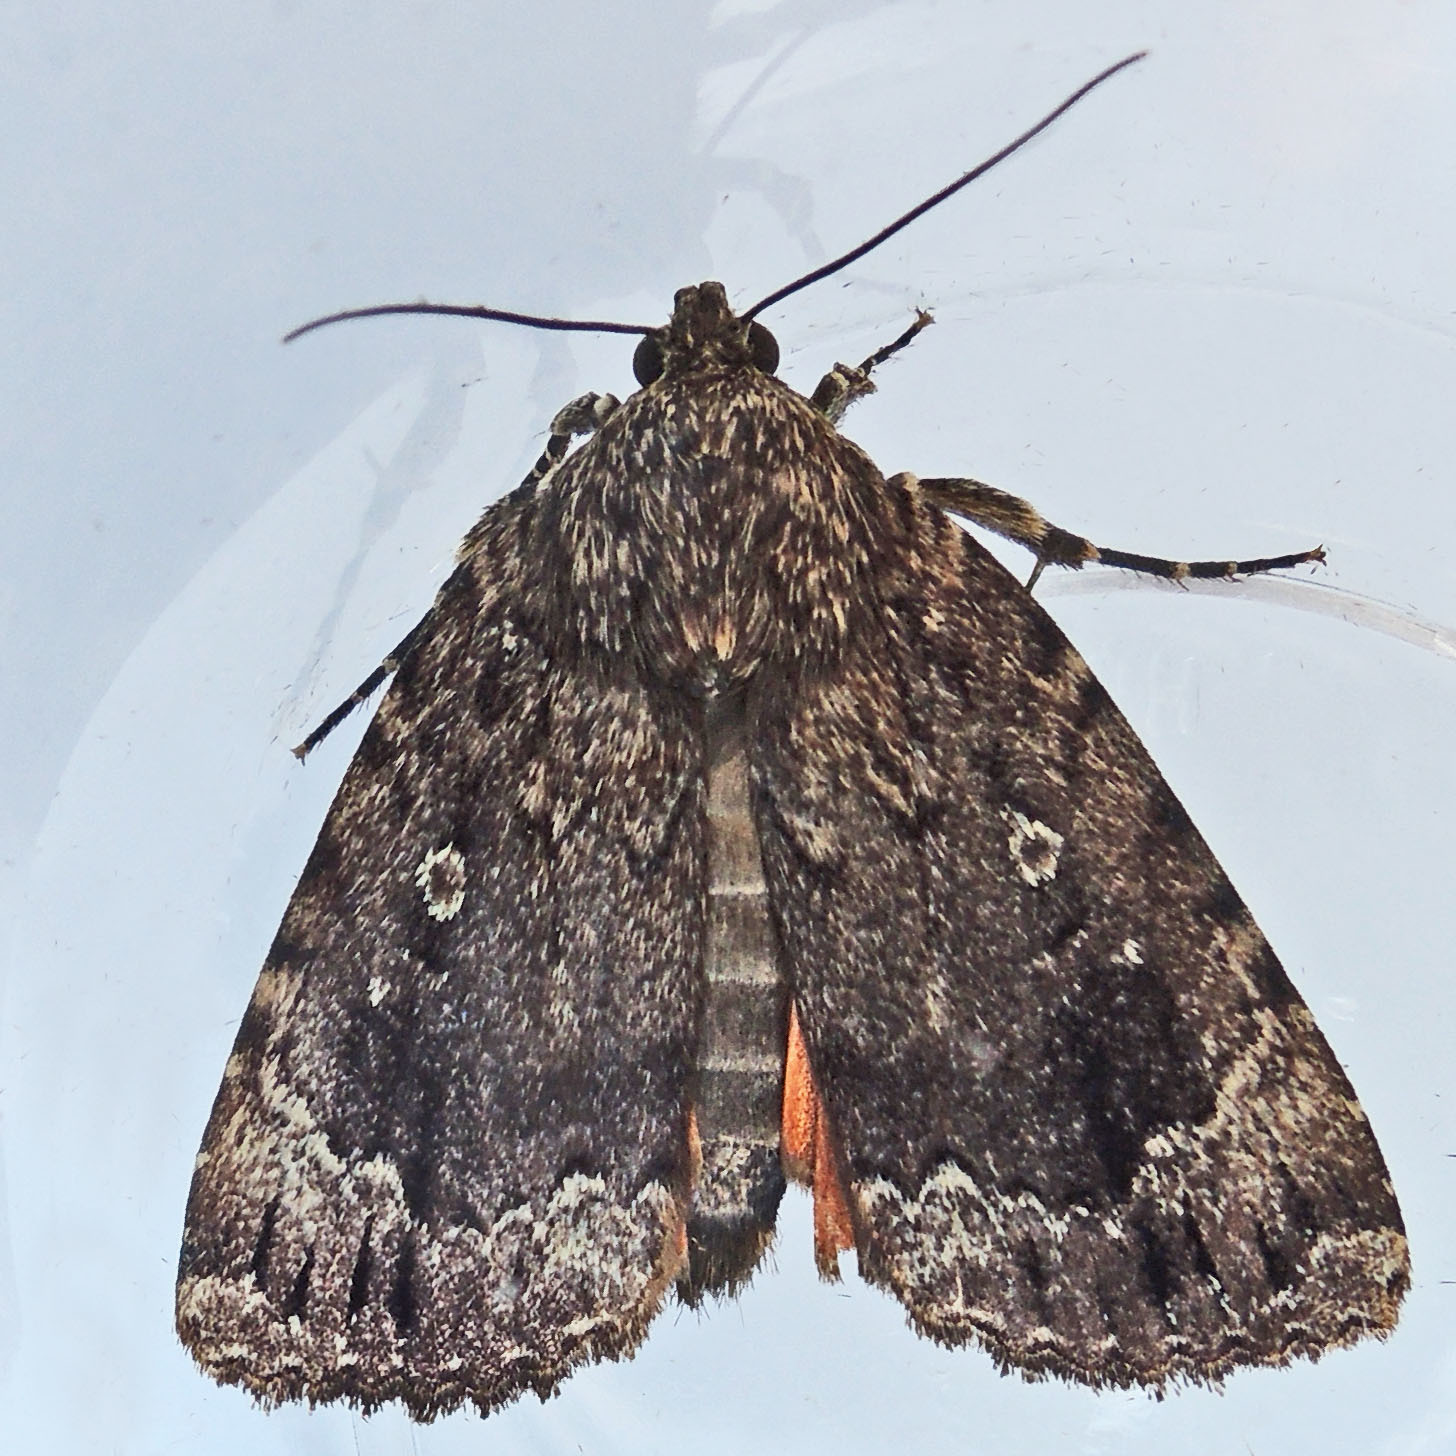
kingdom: Animalia
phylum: Arthropoda
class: Insecta
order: Lepidoptera
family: Noctuidae
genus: Amphipyra
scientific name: Amphipyra pyramidoides
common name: American copper underwing
